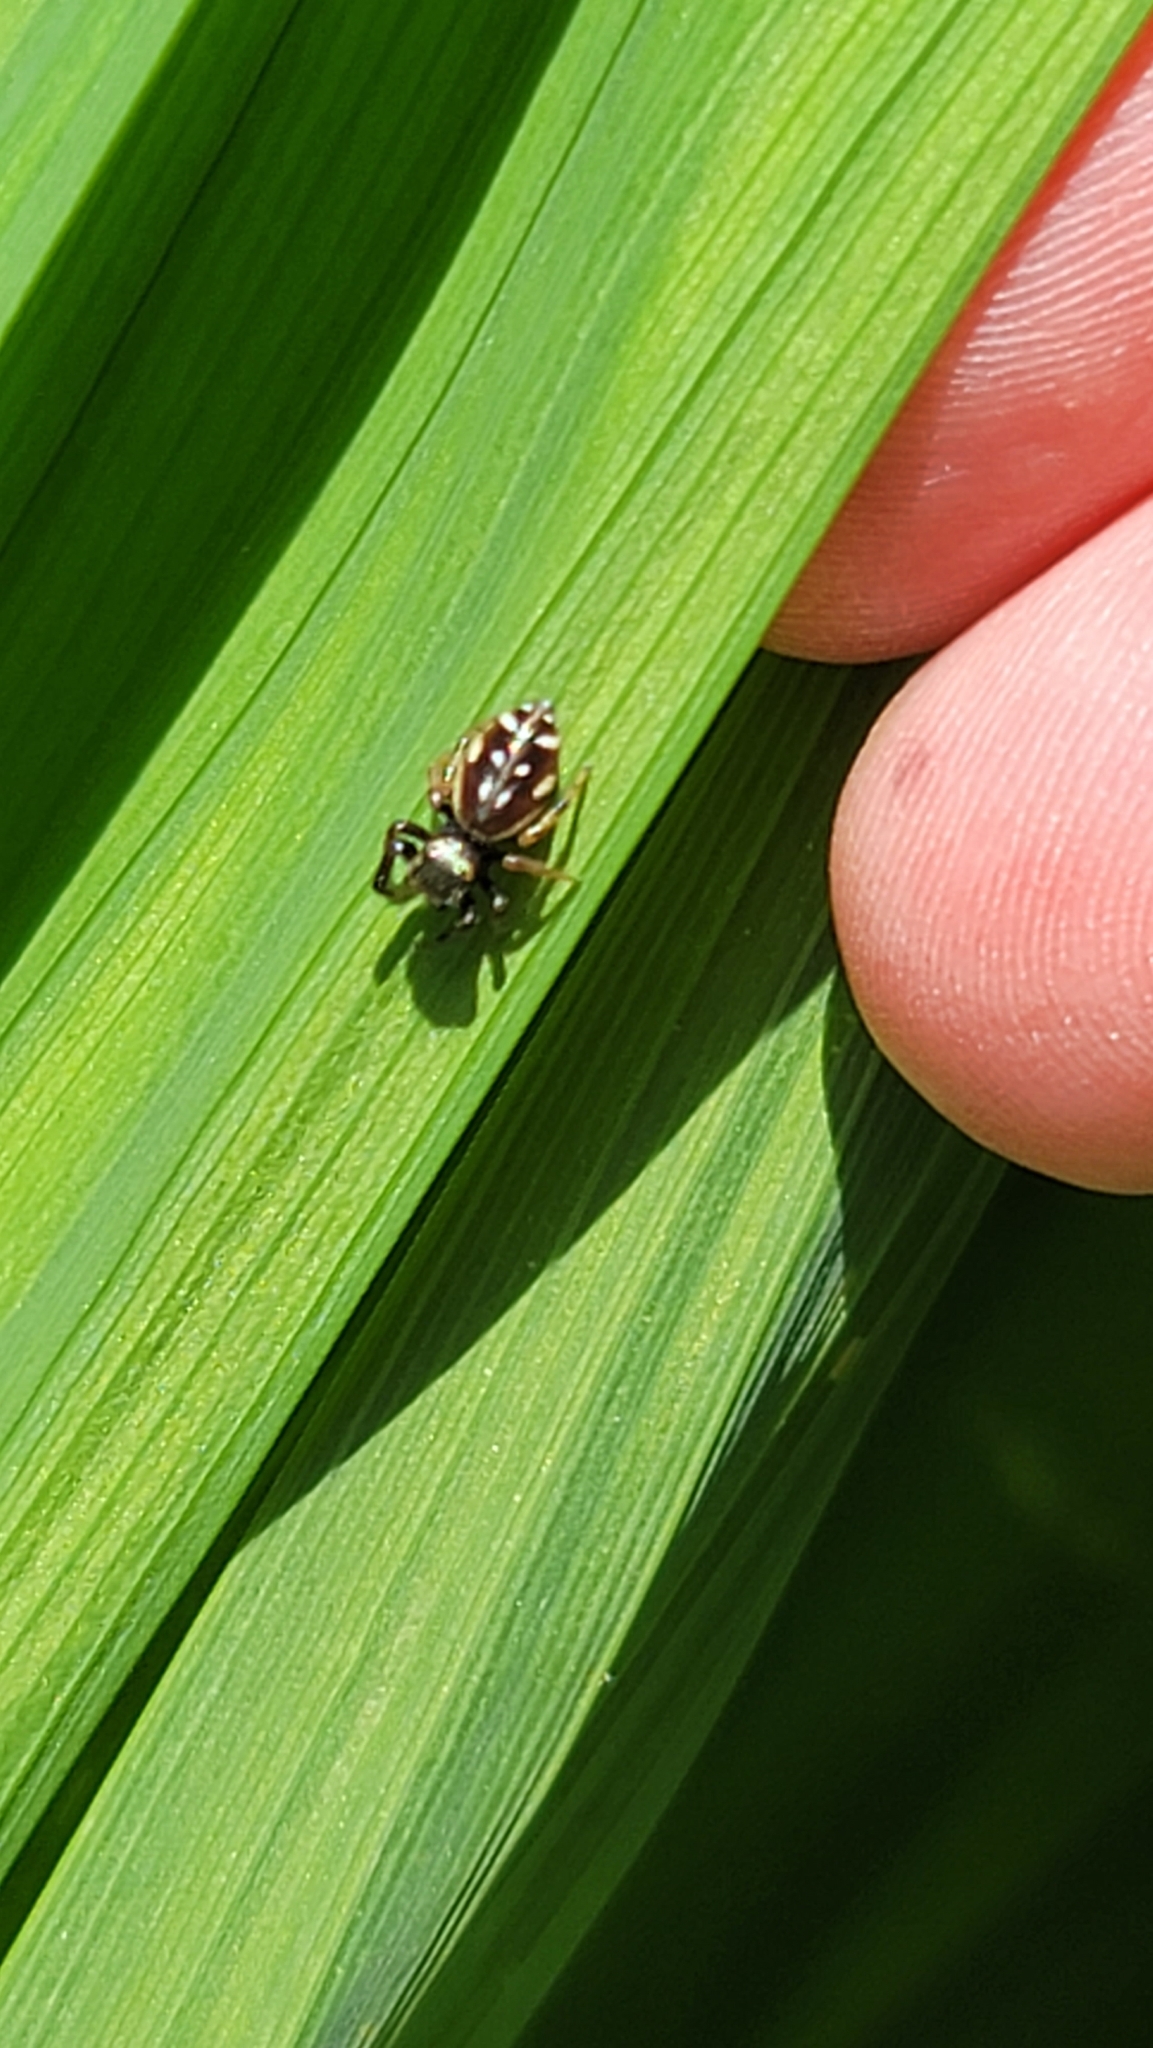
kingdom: Animalia
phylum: Arthropoda
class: Arachnida
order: Araneae
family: Salticidae
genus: Paraphidippus
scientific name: Paraphidippus aurantius
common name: Jumping spiders
